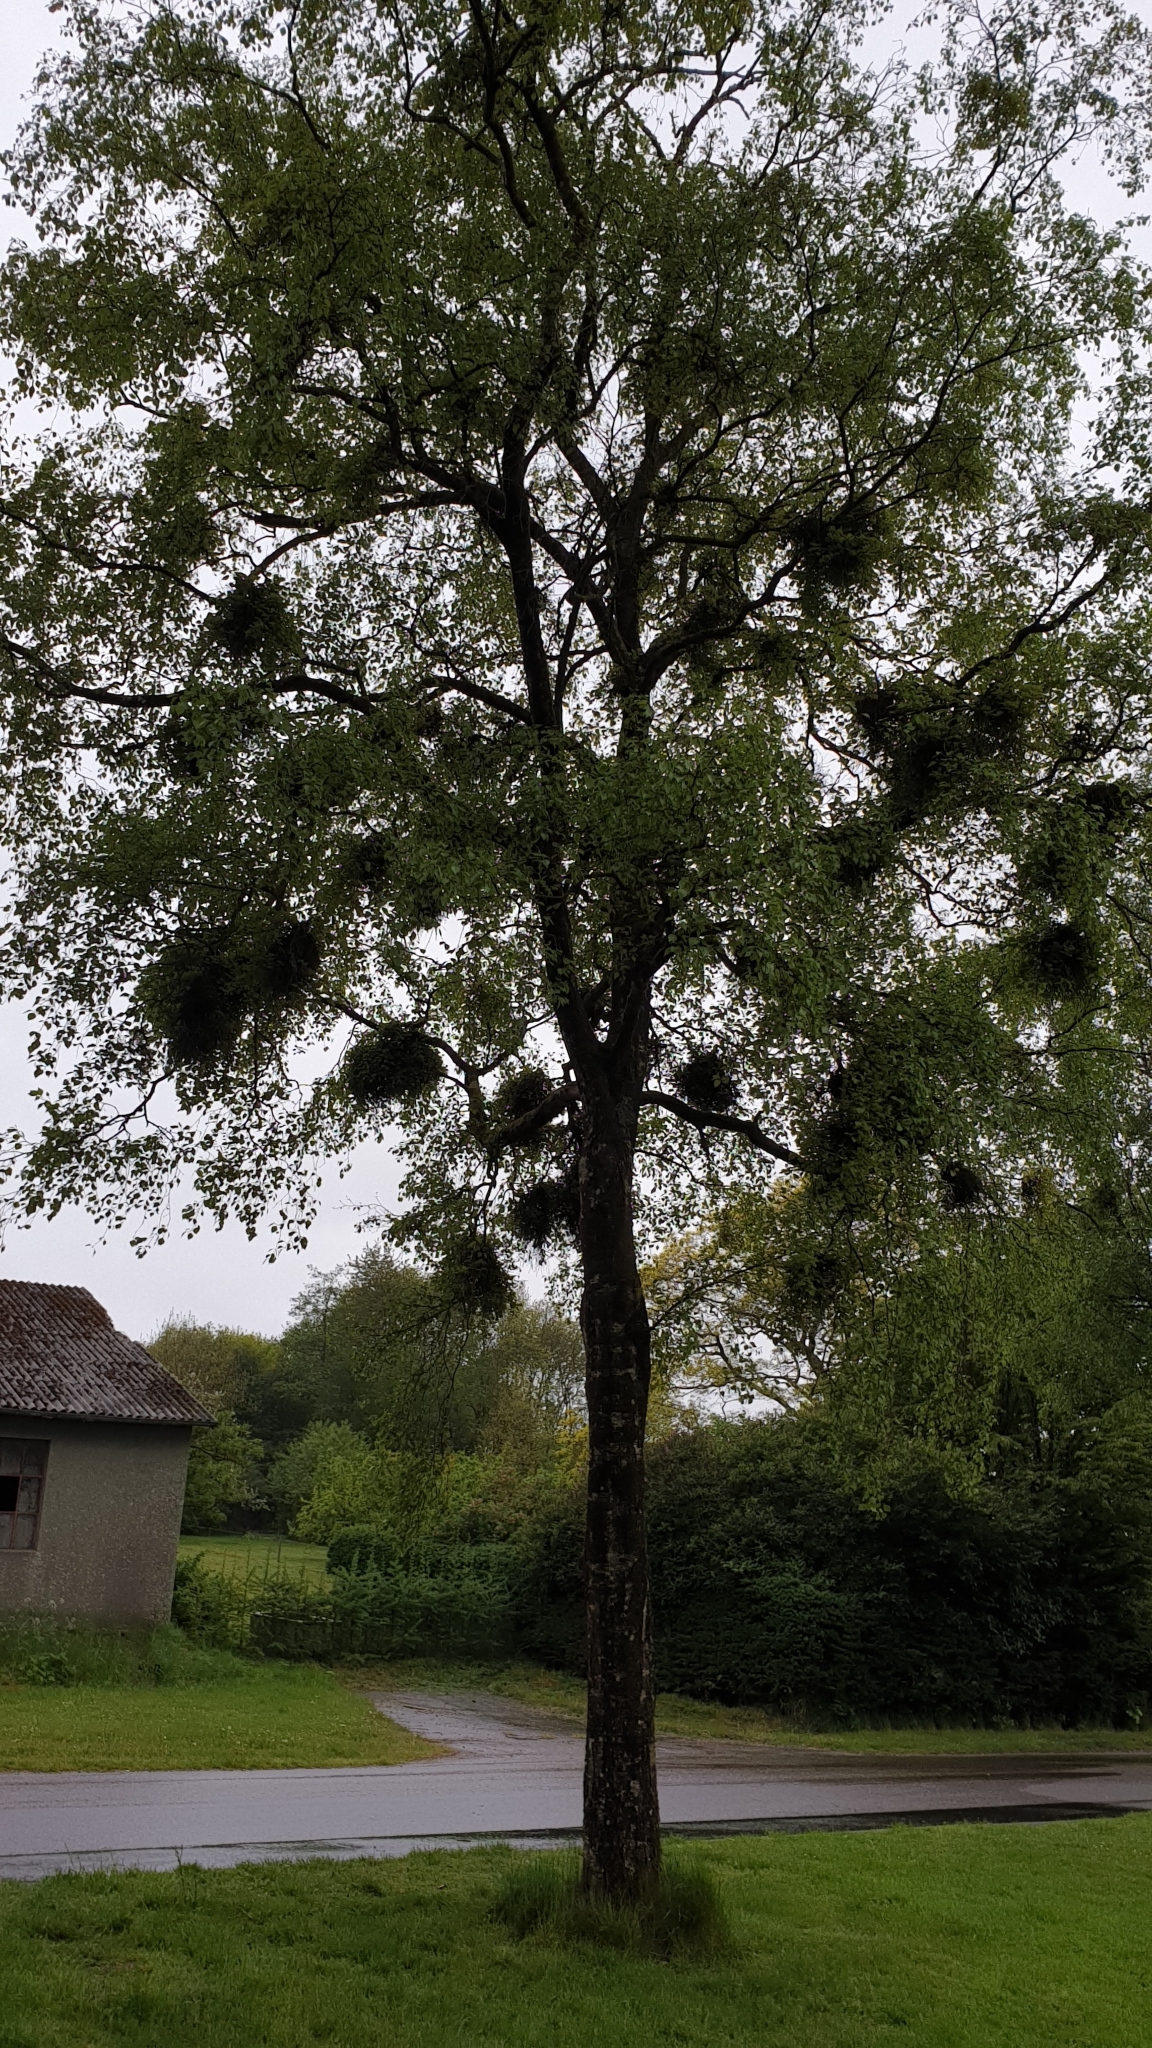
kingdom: Fungi
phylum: Ascomycota
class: Taphrinomycetes
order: Taphrinales
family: Taphrinaceae
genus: Taphrina
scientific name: Taphrina betulina
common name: Birch besom
